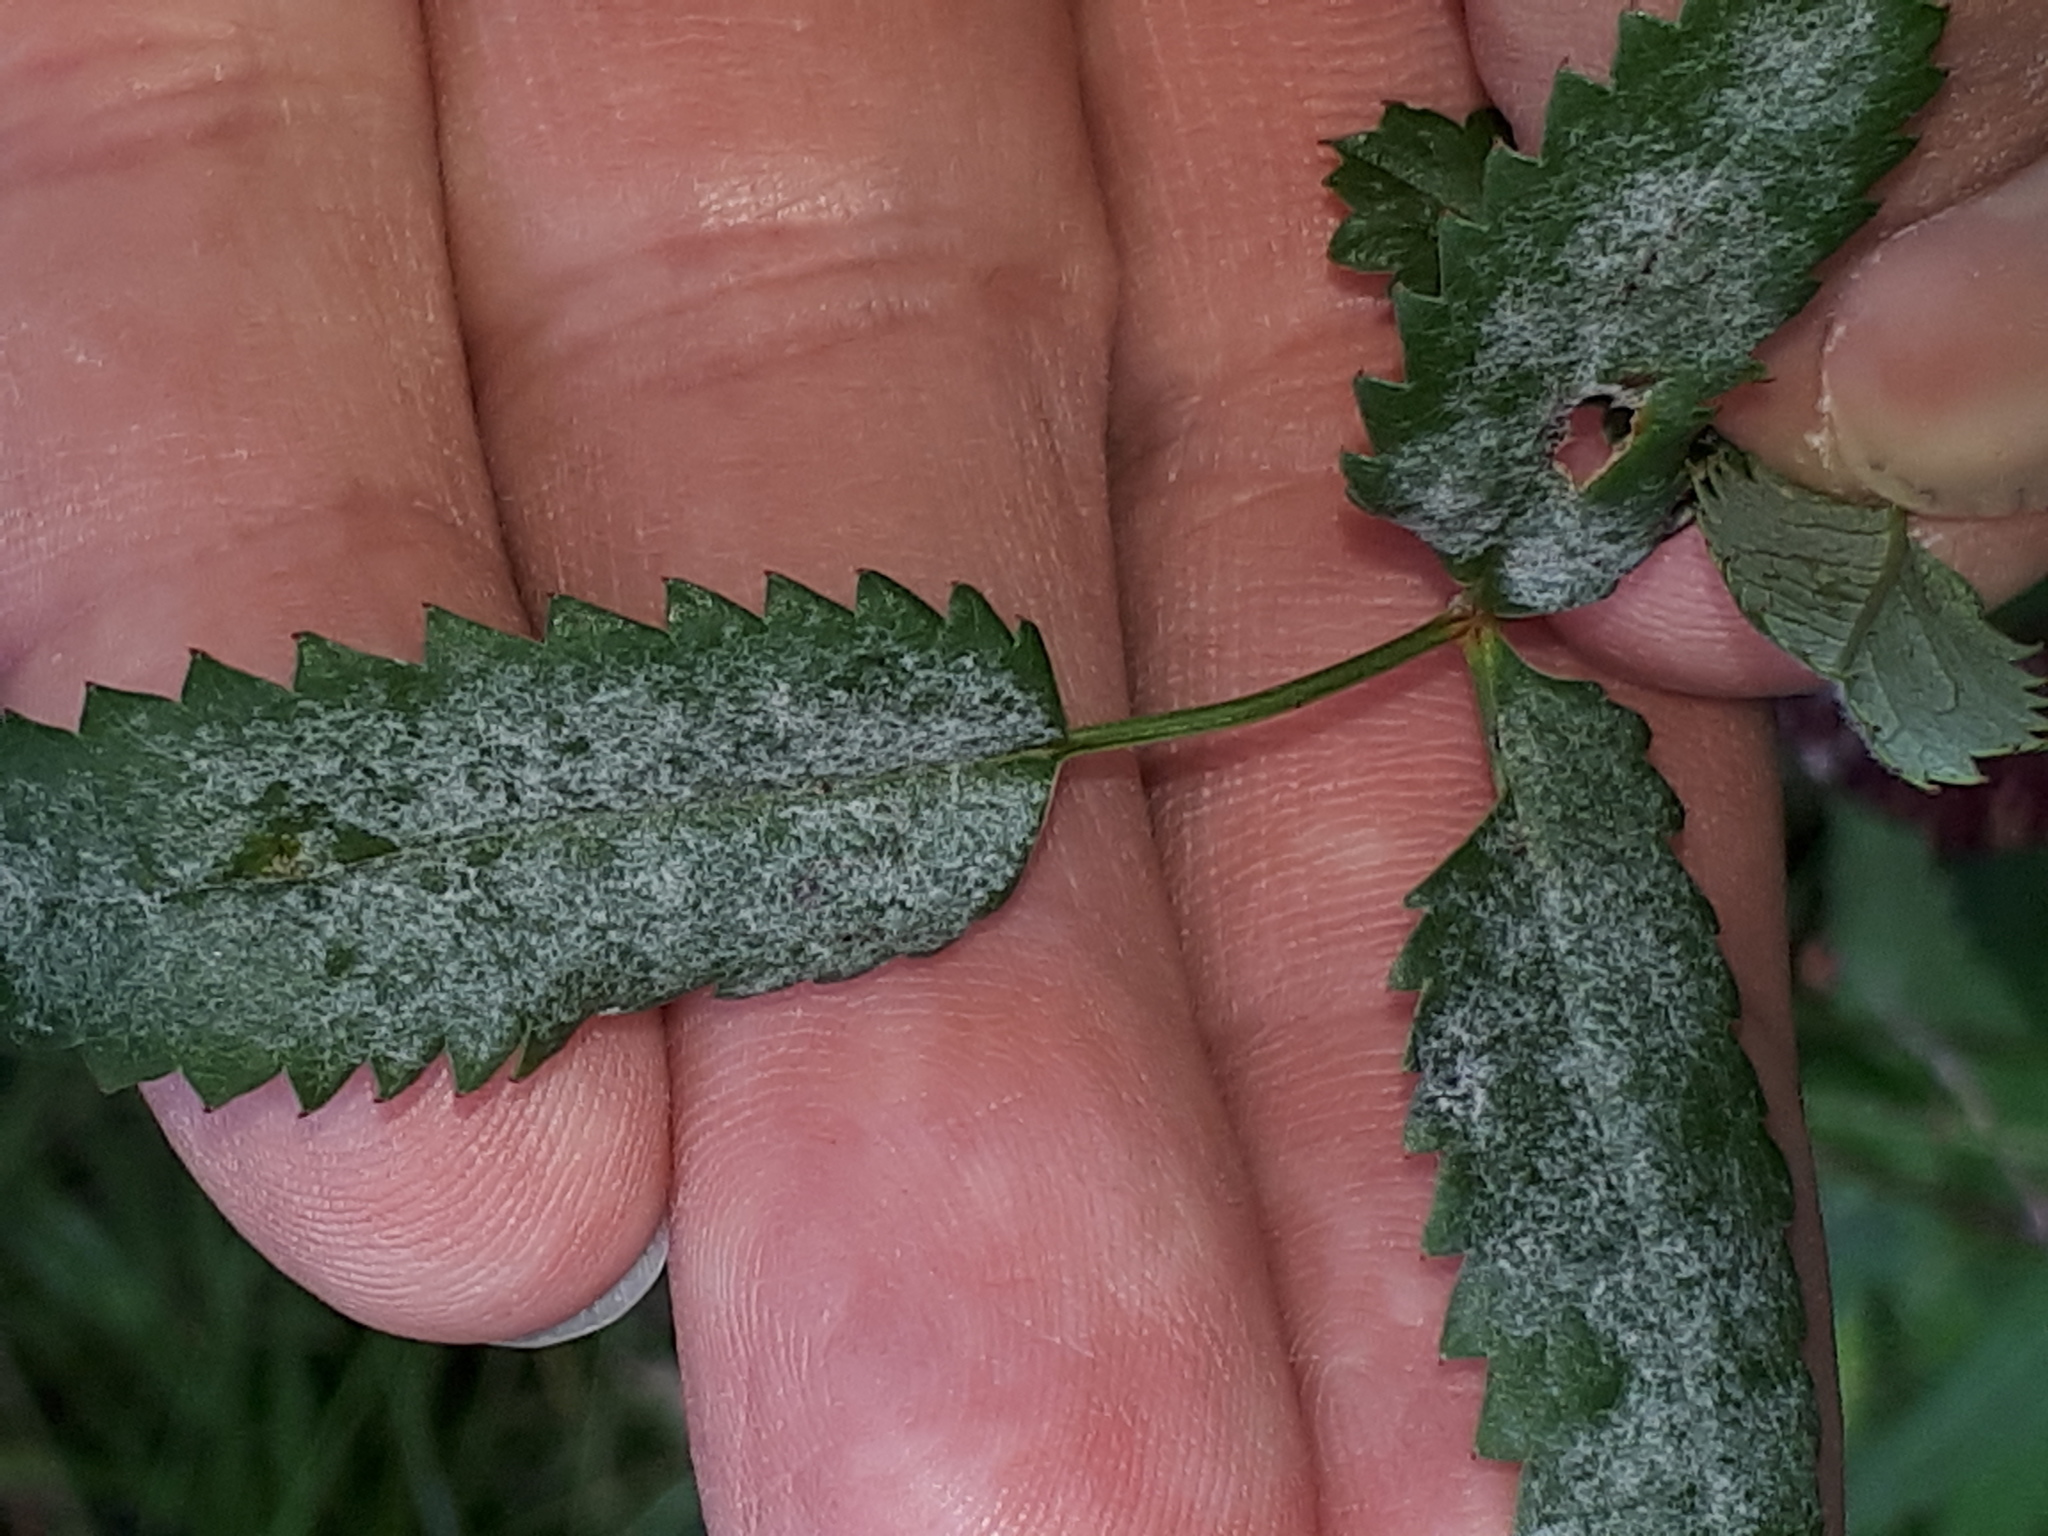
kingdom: Fungi
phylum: Ascomycota
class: Leotiomycetes
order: Helotiales
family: Erysiphaceae
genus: Podosphaera
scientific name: Podosphaera ferruginea
